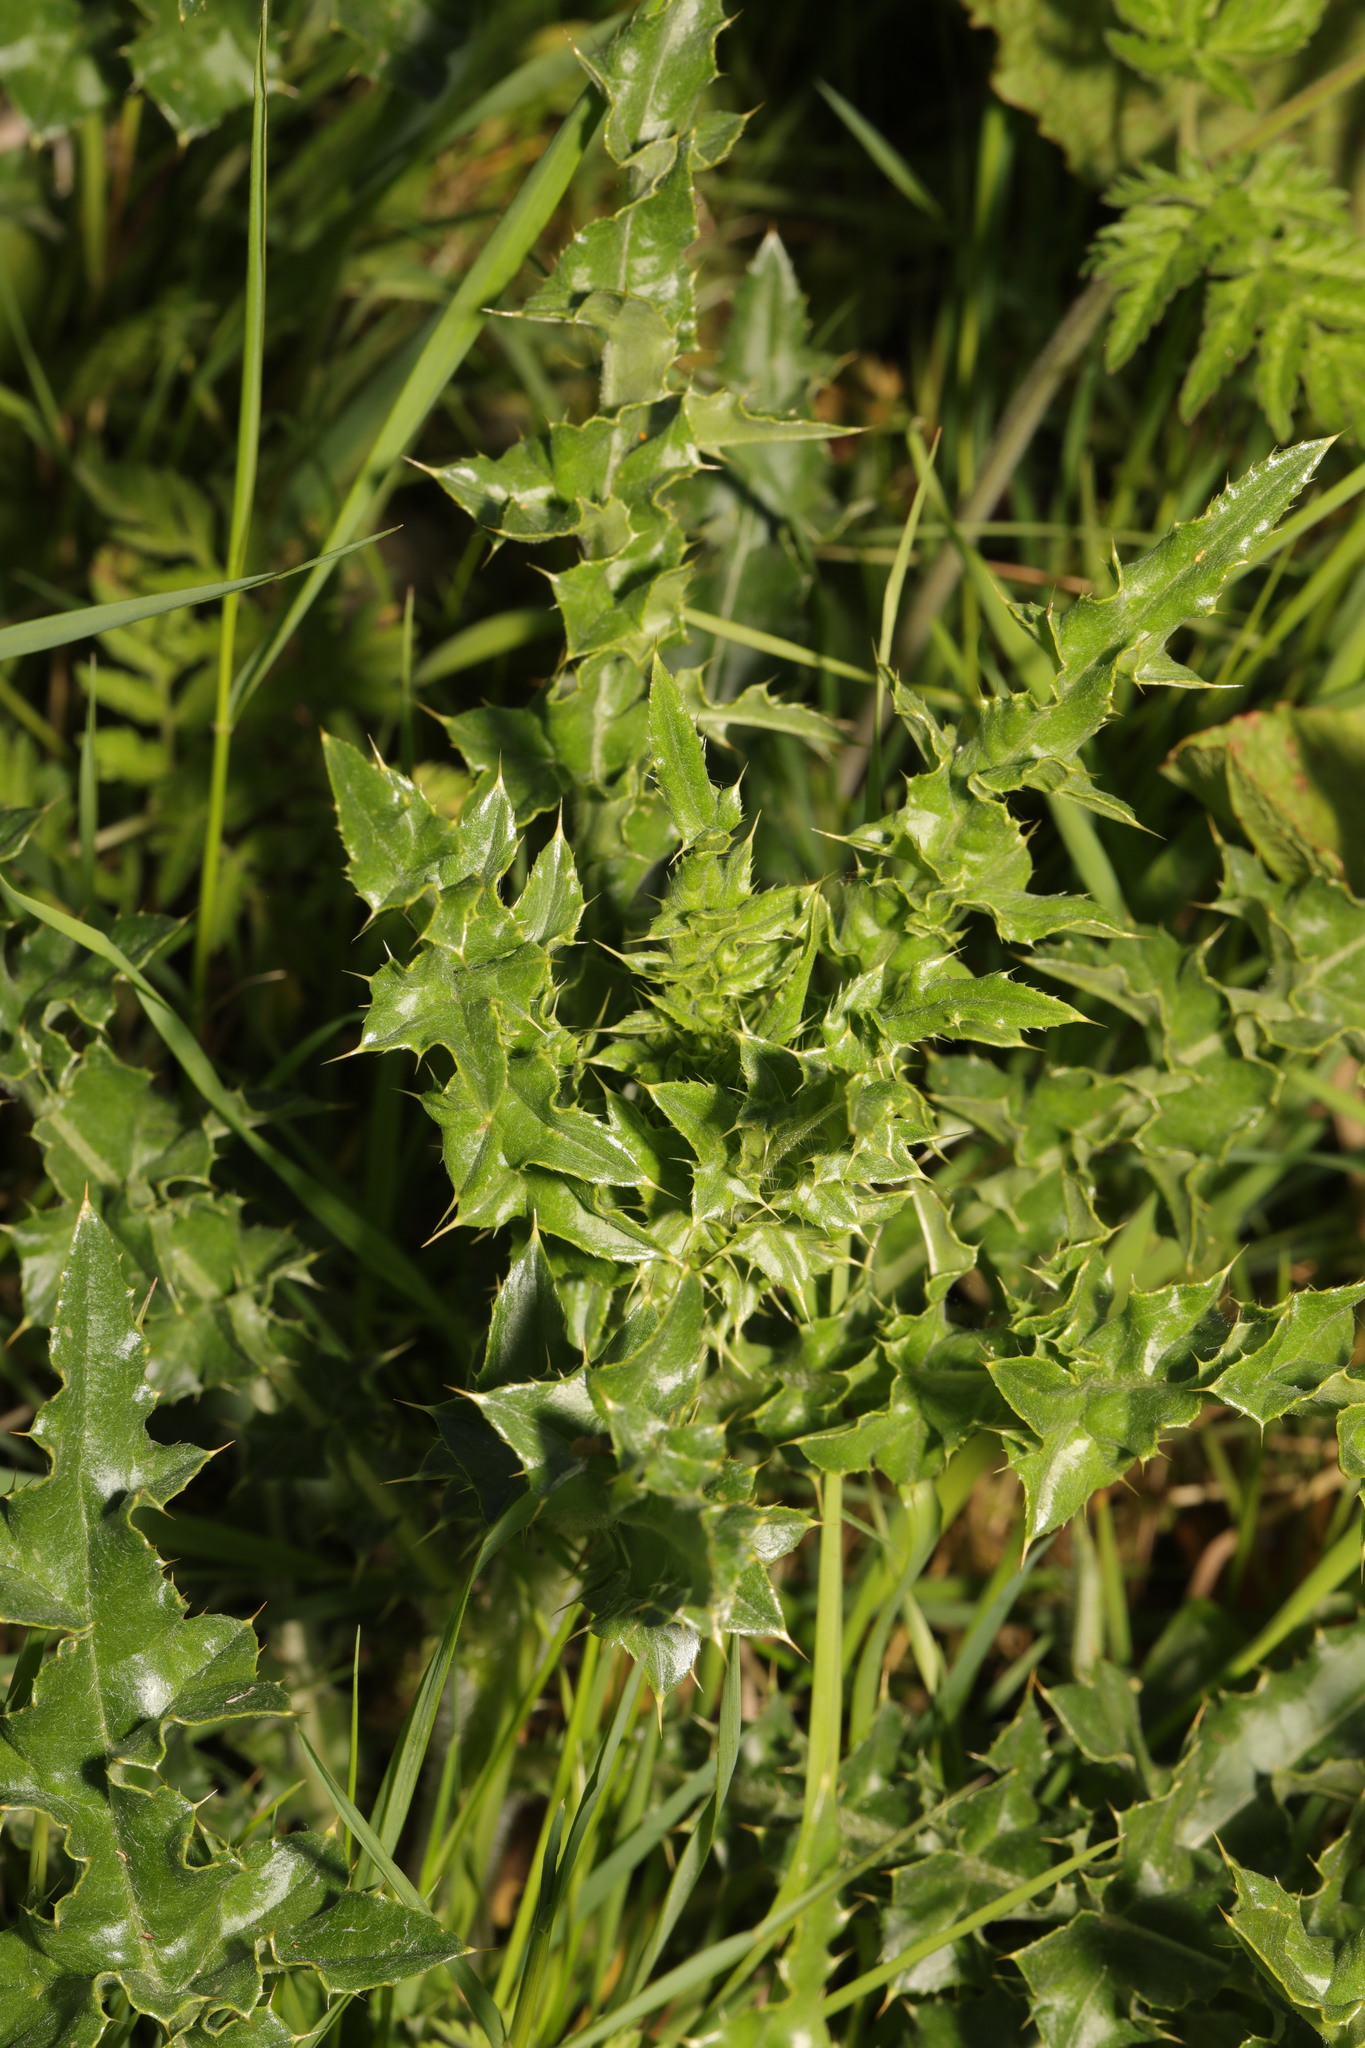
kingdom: Plantae
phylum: Tracheophyta
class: Magnoliopsida
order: Asterales
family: Asteraceae
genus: Cirsium
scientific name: Cirsium arvense
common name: Creeping thistle
